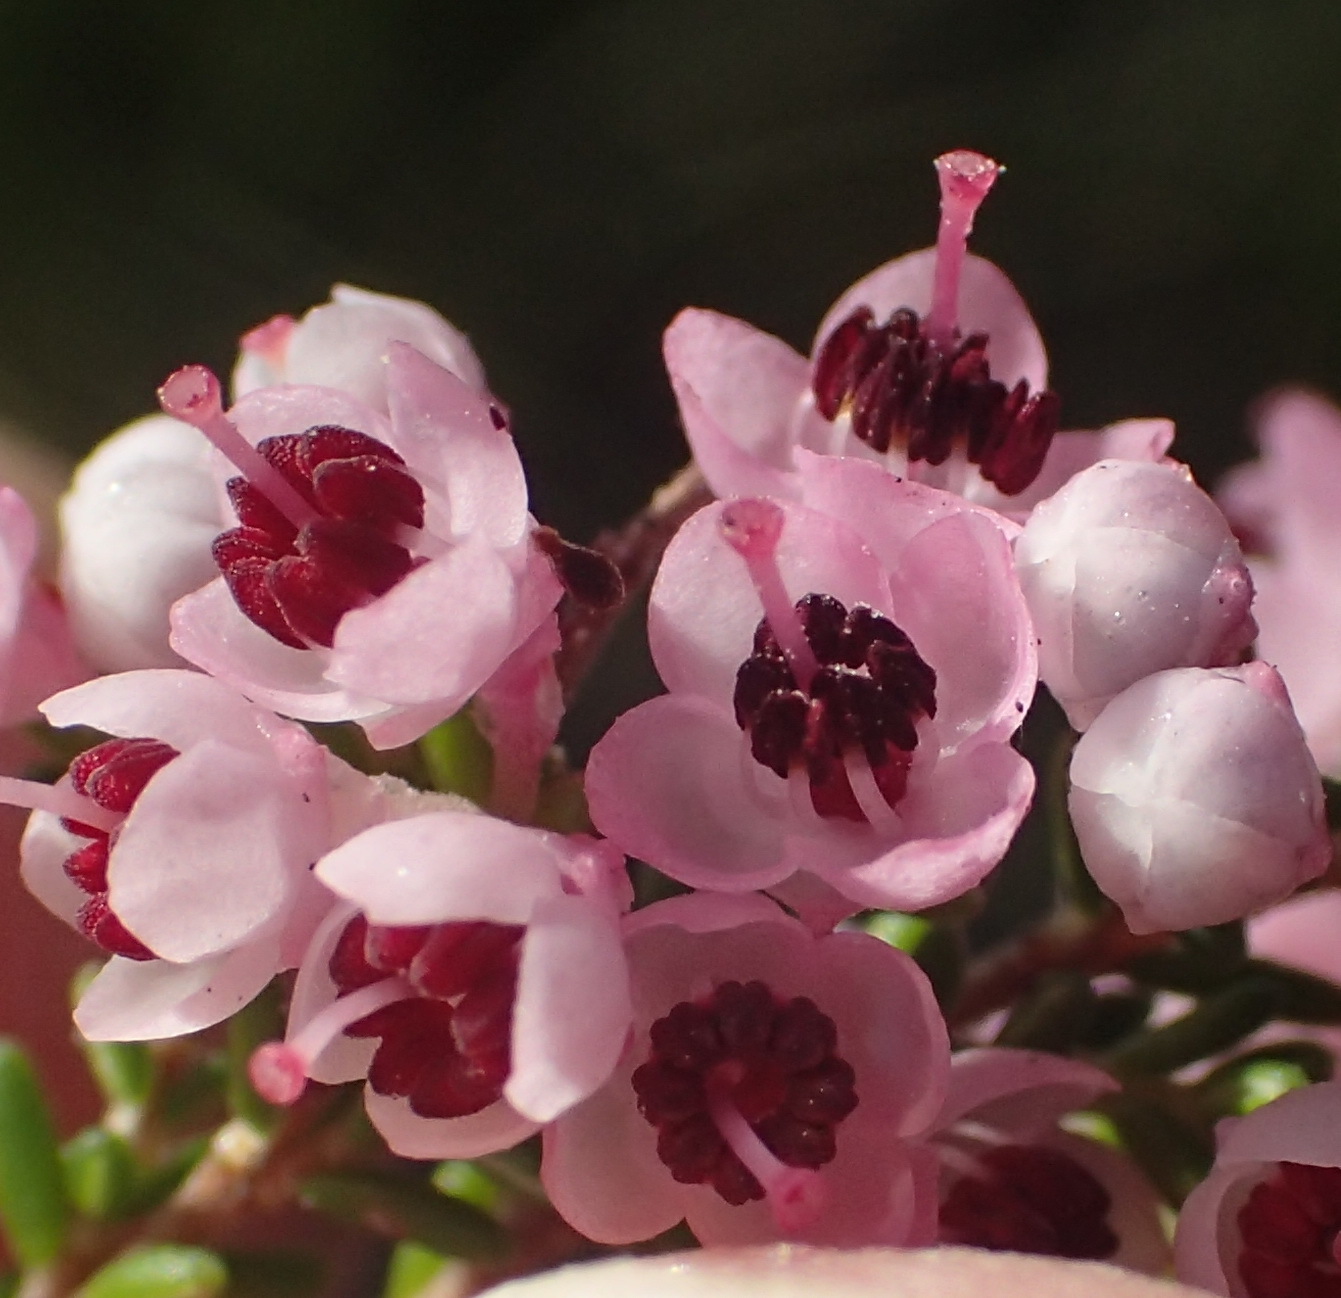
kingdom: Plantae
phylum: Tracheophyta
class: Magnoliopsida
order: Ericales
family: Ericaceae
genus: Erica
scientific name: Erica sparsa
